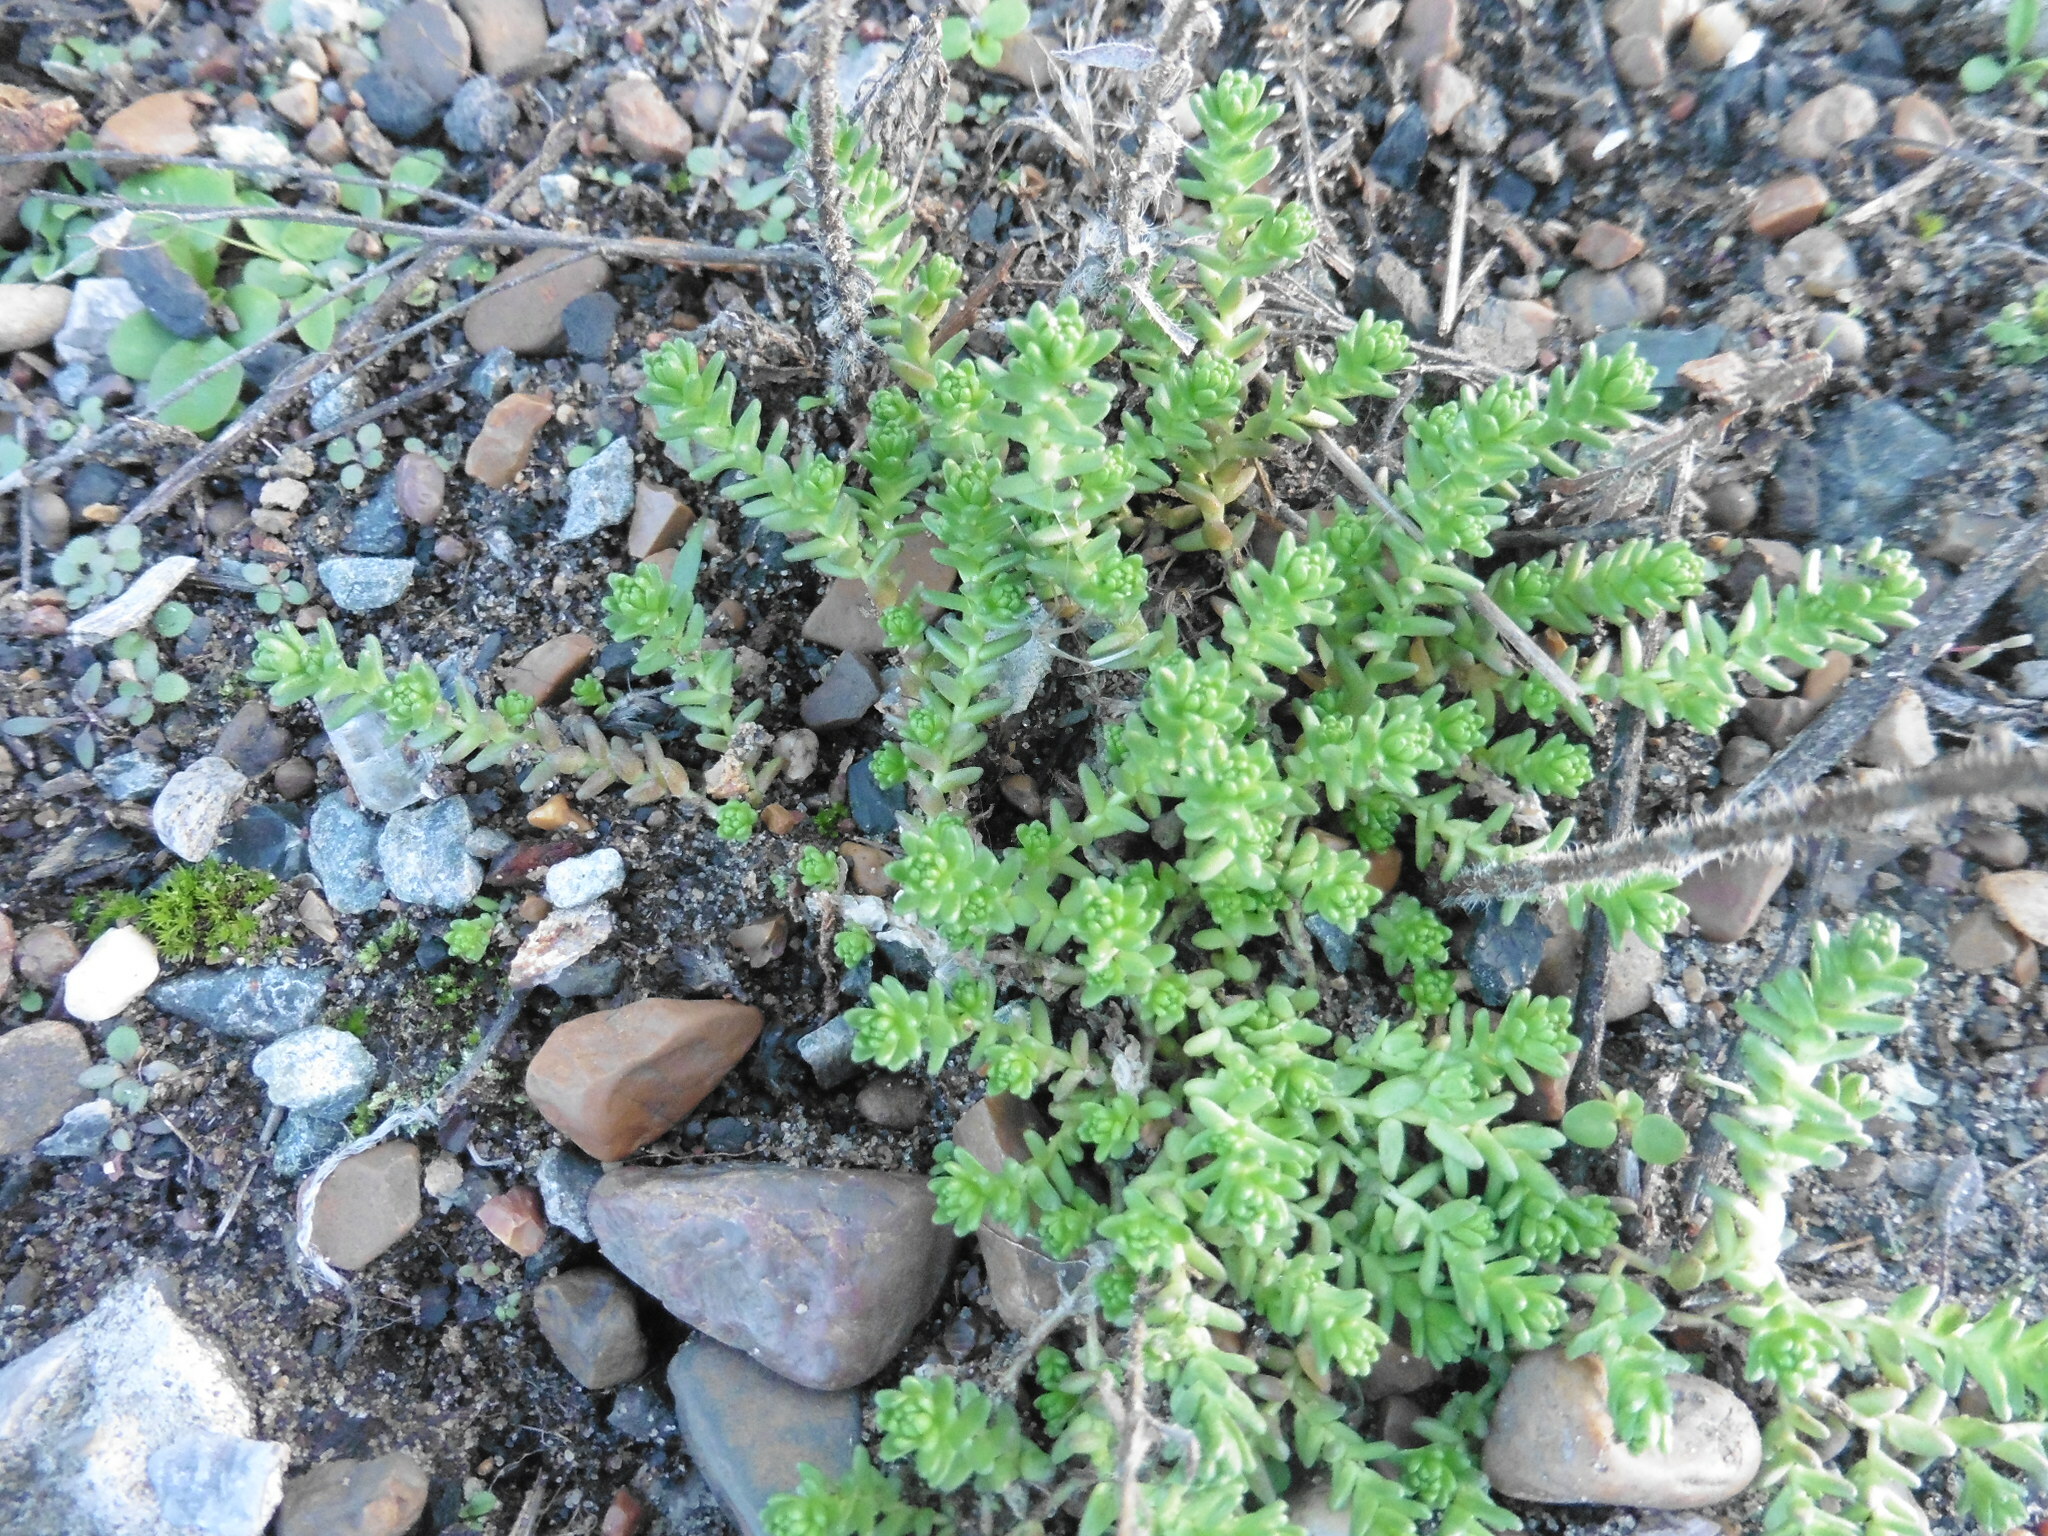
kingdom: Plantae
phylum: Tracheophyta
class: Magnoliopsida
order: Saxifragales
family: Crassulaceae
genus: Sedum
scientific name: Sedum acre
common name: Biting stonecrop
